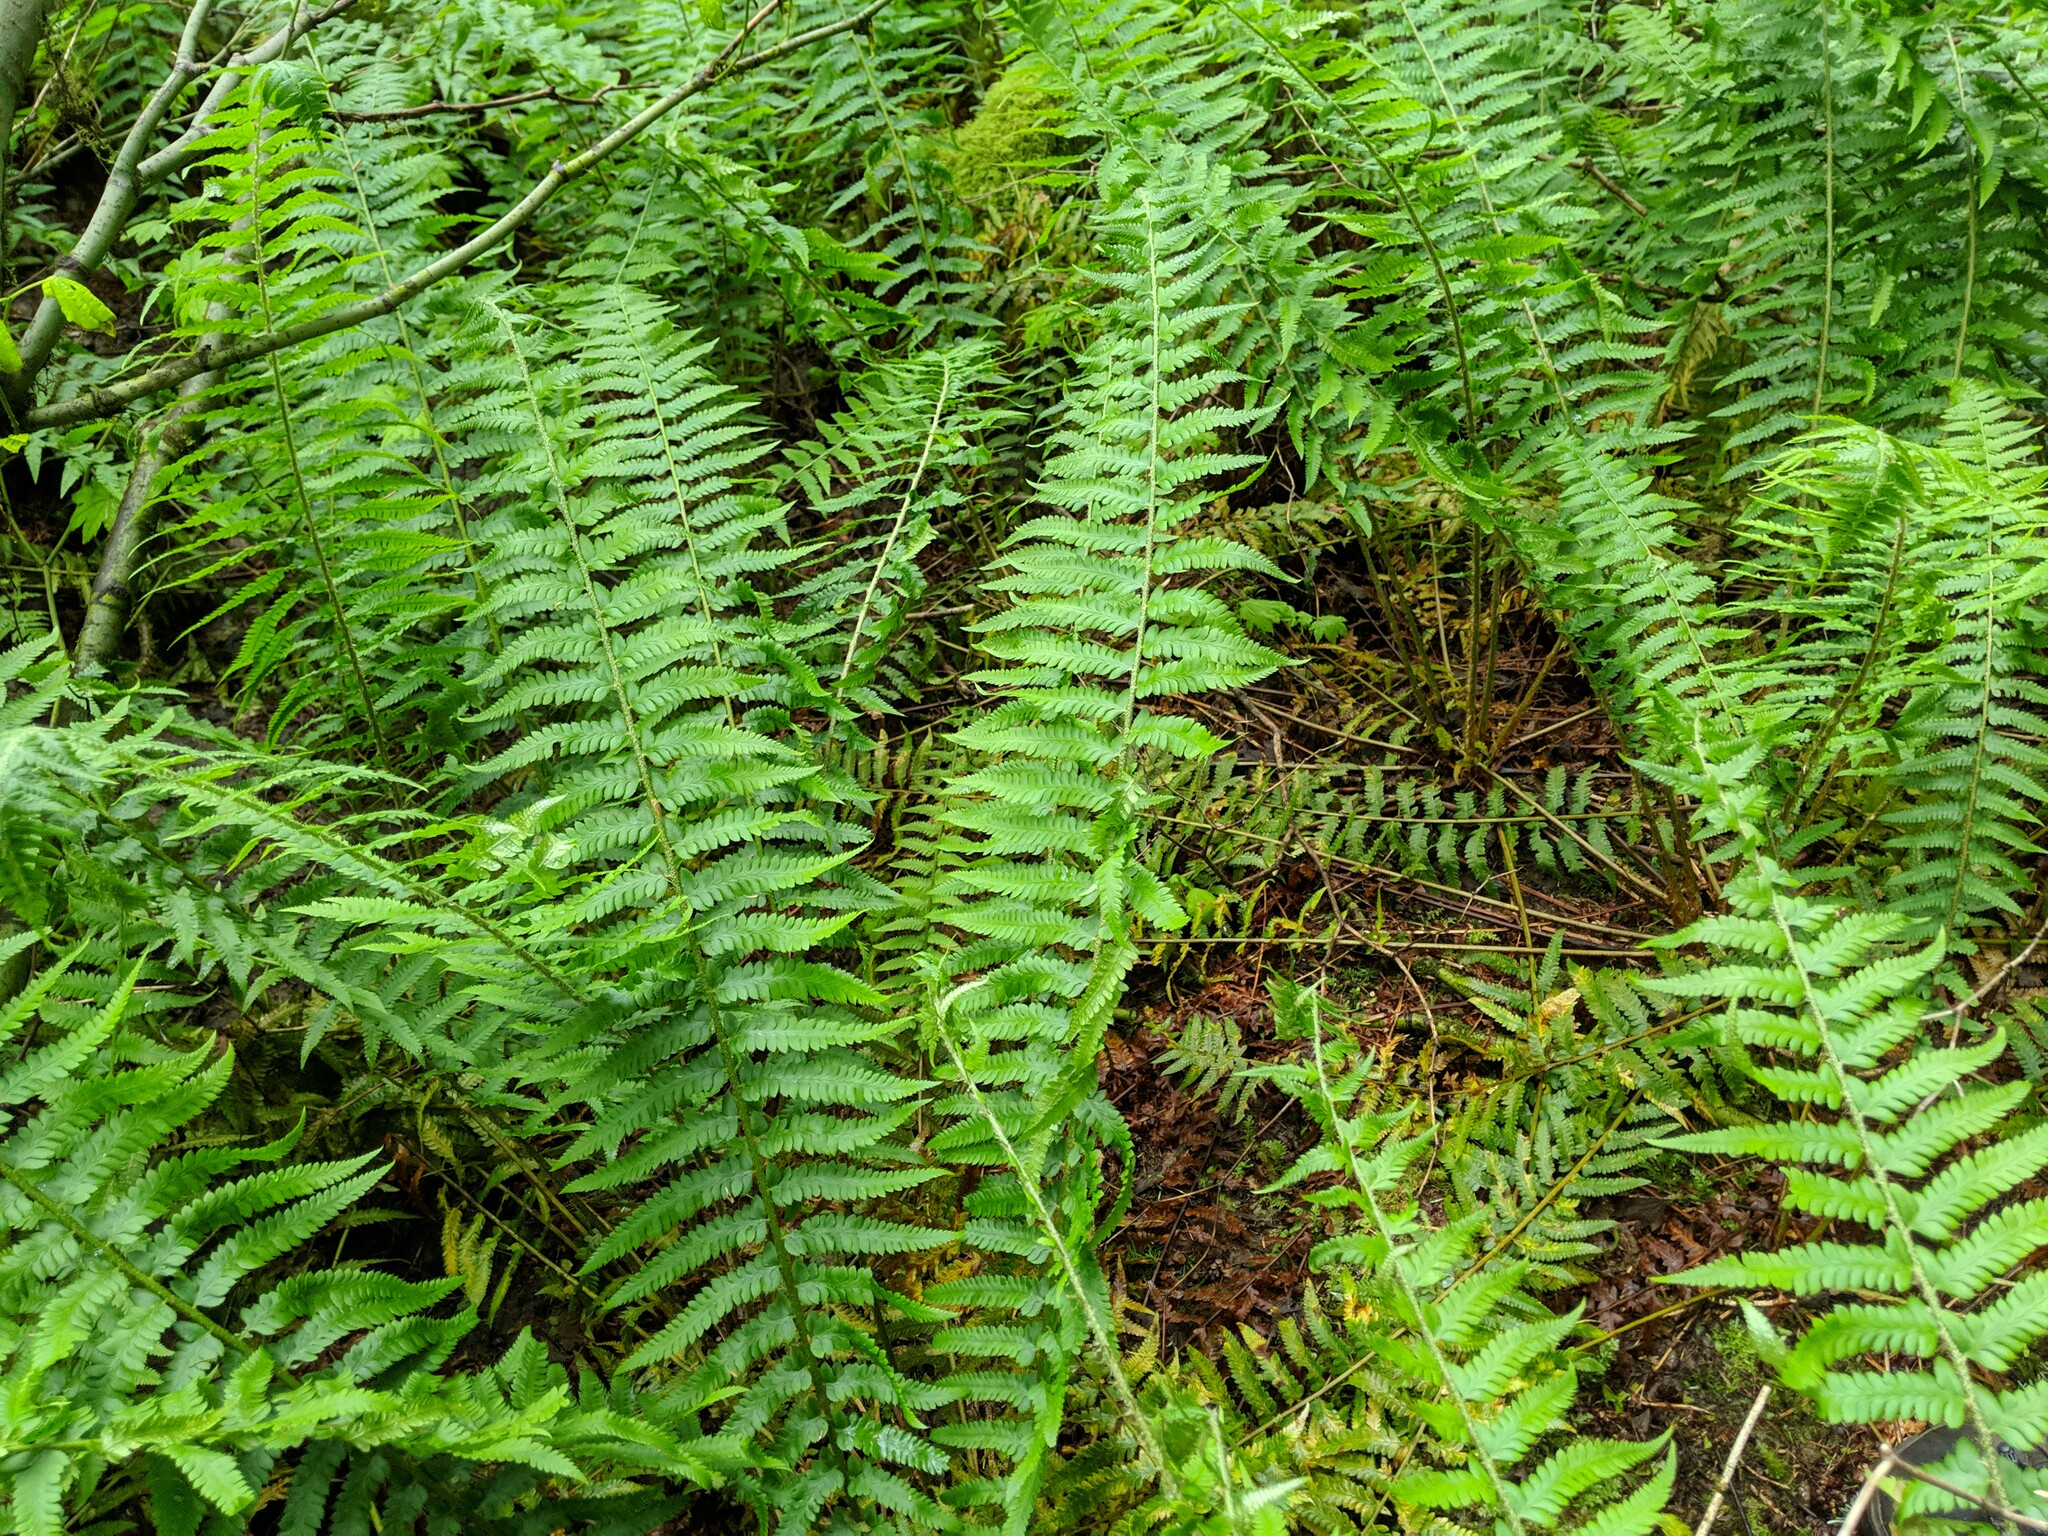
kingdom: Plantae
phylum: Tracheophyta
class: Polypodiopsida
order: Polypodiales
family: Dryopteridaceae
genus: Polystichum
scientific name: Polystichum andersonii
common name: Anderson's holly fern
